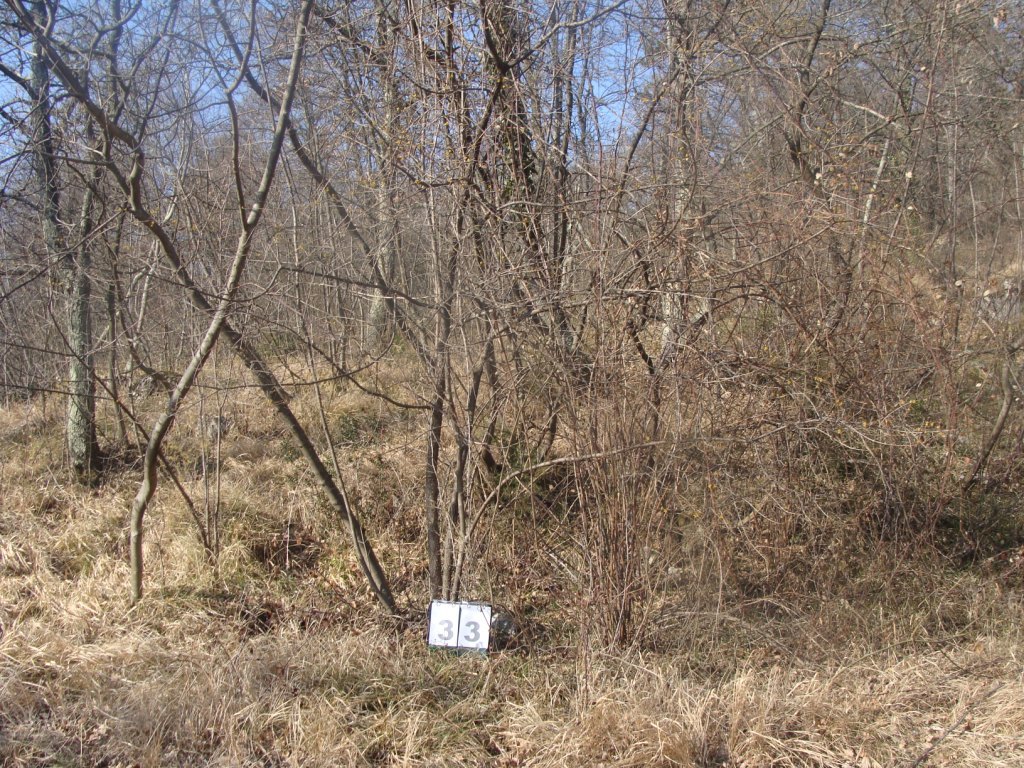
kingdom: Plantae
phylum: Tracheophyta
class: Magnoliopsida
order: Cornales
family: Cornaceae
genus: Cornus
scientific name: Cornus mas
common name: Cornelian-cherry
